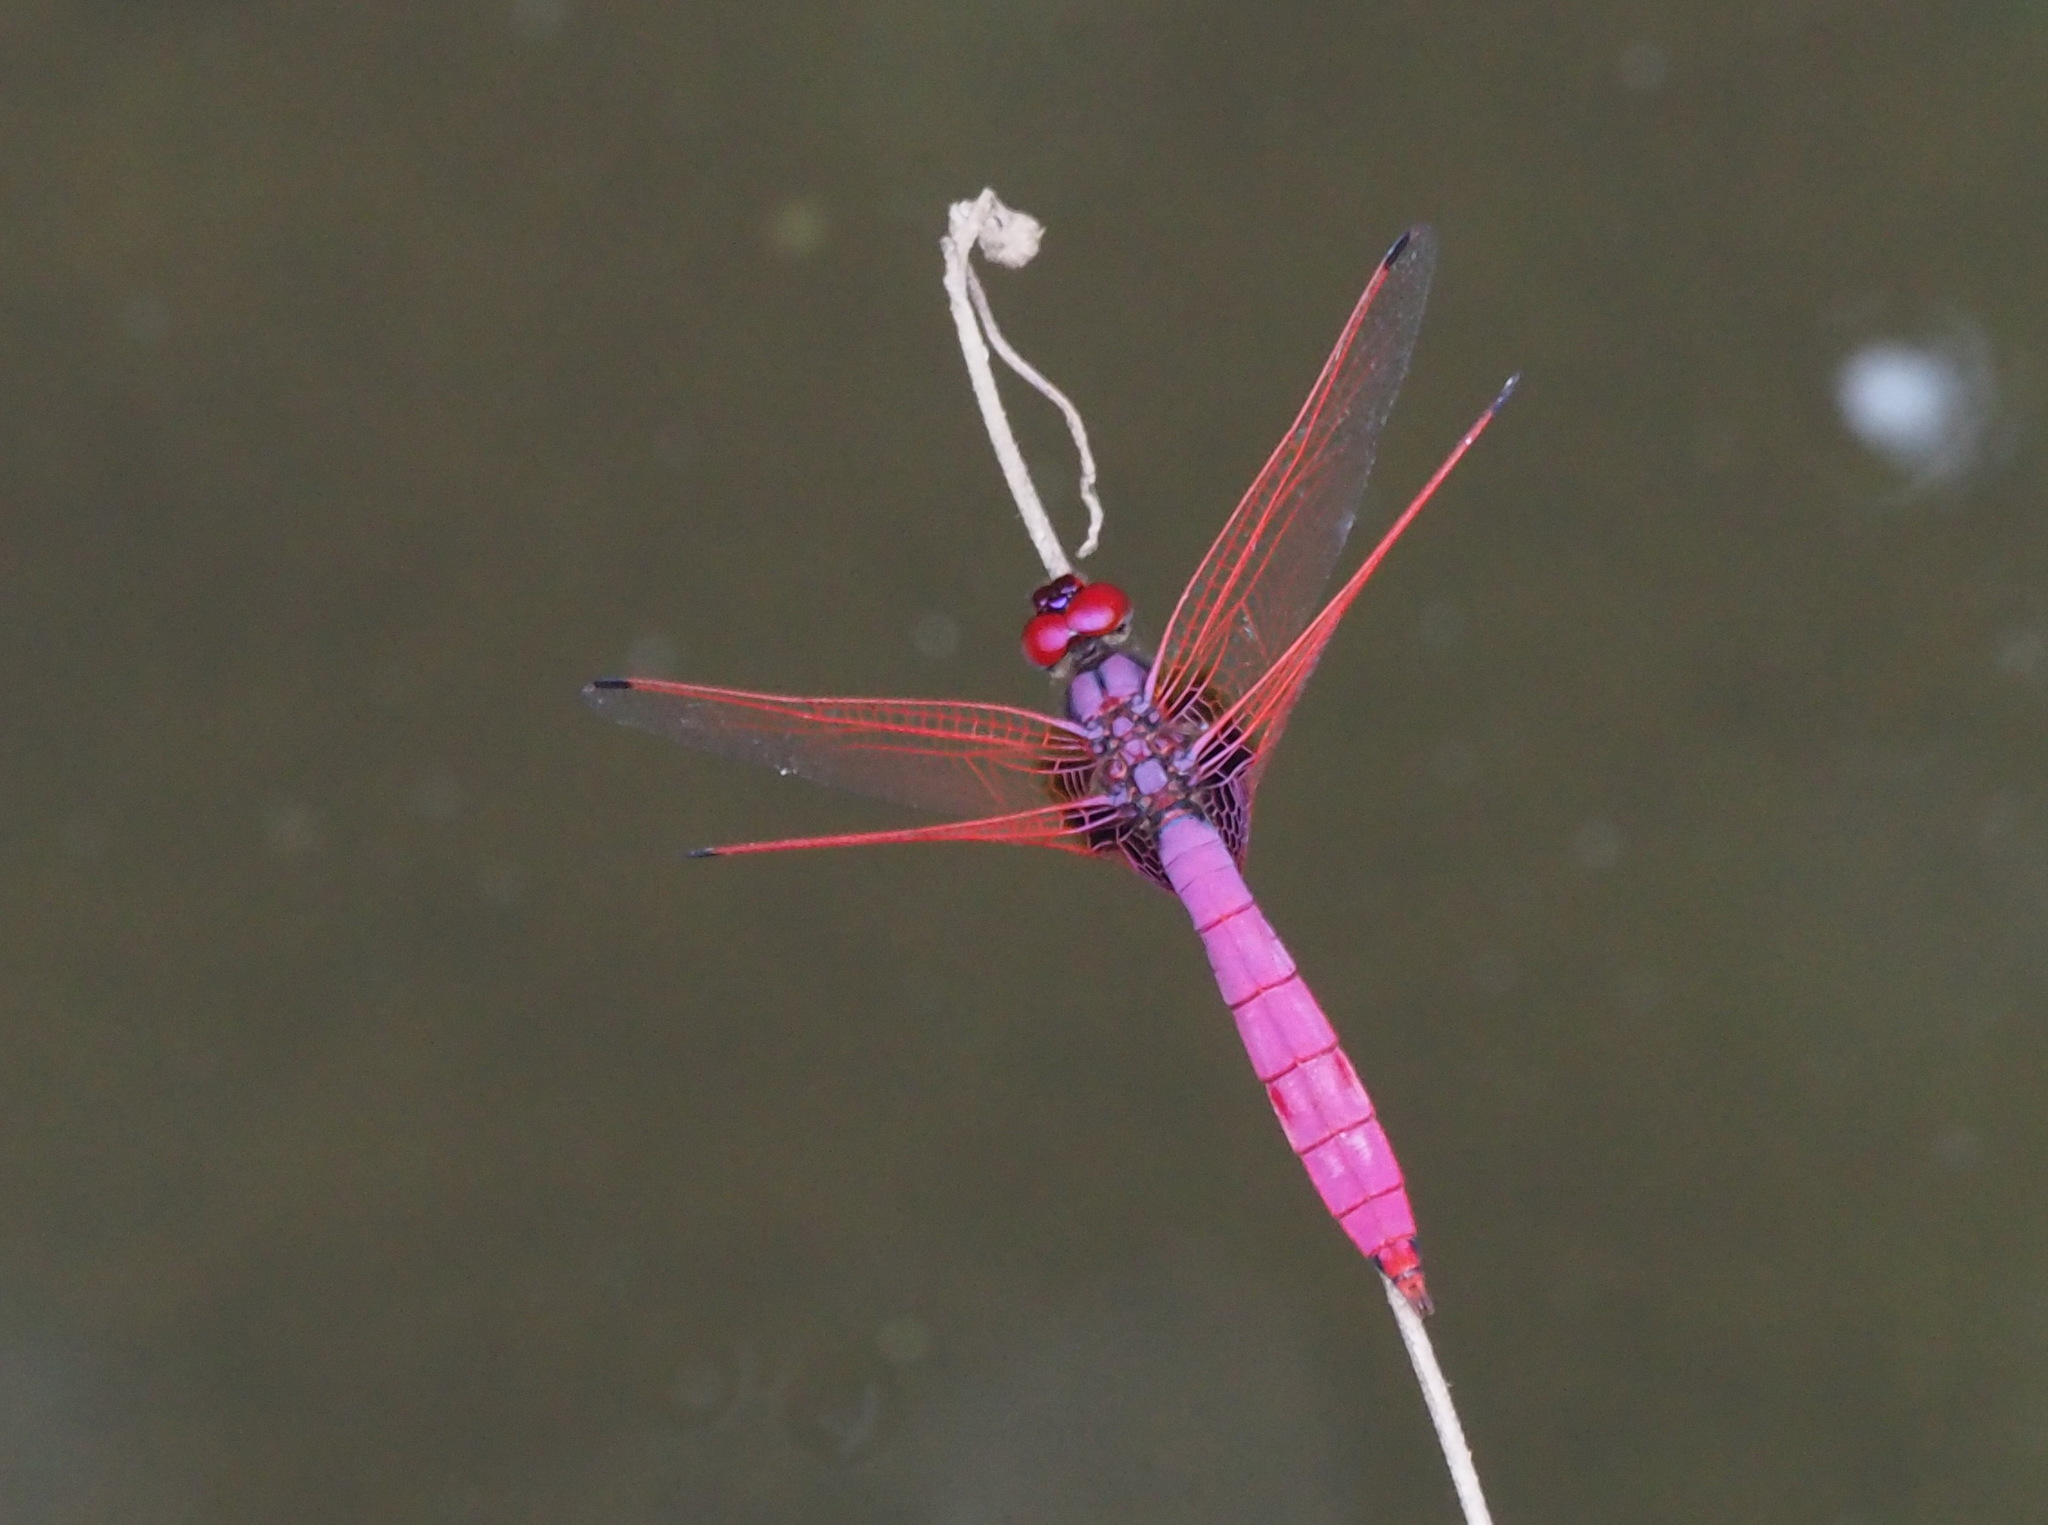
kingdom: Animalia
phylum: Arthropoda
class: Insecta
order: Odonata
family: Libellulidae
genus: Trithemis
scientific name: Trithemis aurora
